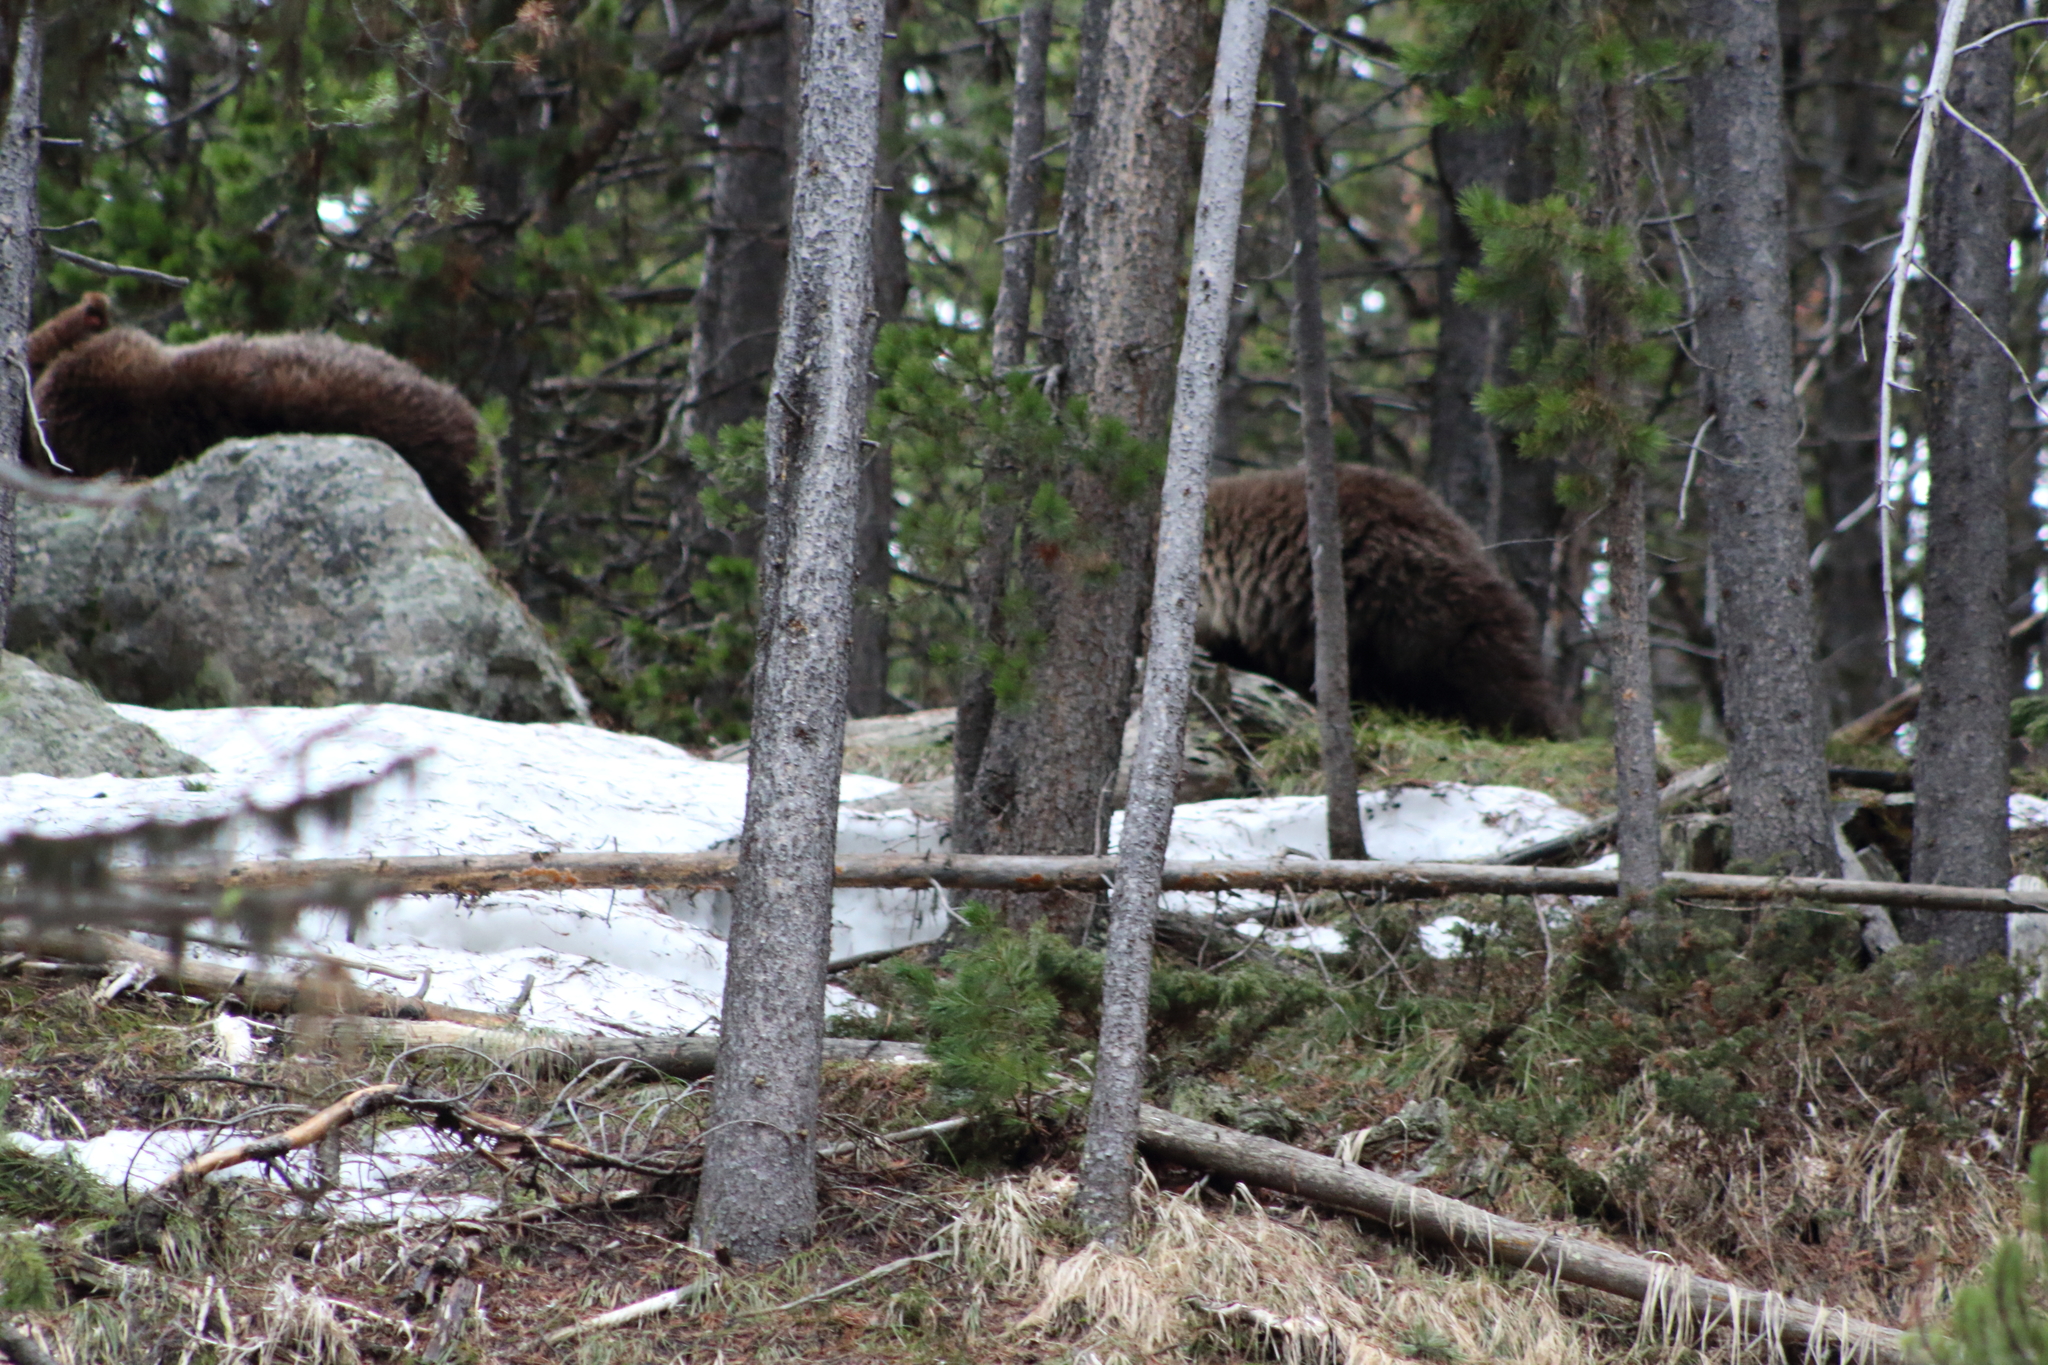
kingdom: Animalia
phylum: Chordata
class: Mammalia
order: Carnivora
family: Ursidae
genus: Ursus
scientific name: Ursus arctos
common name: Brown bear
